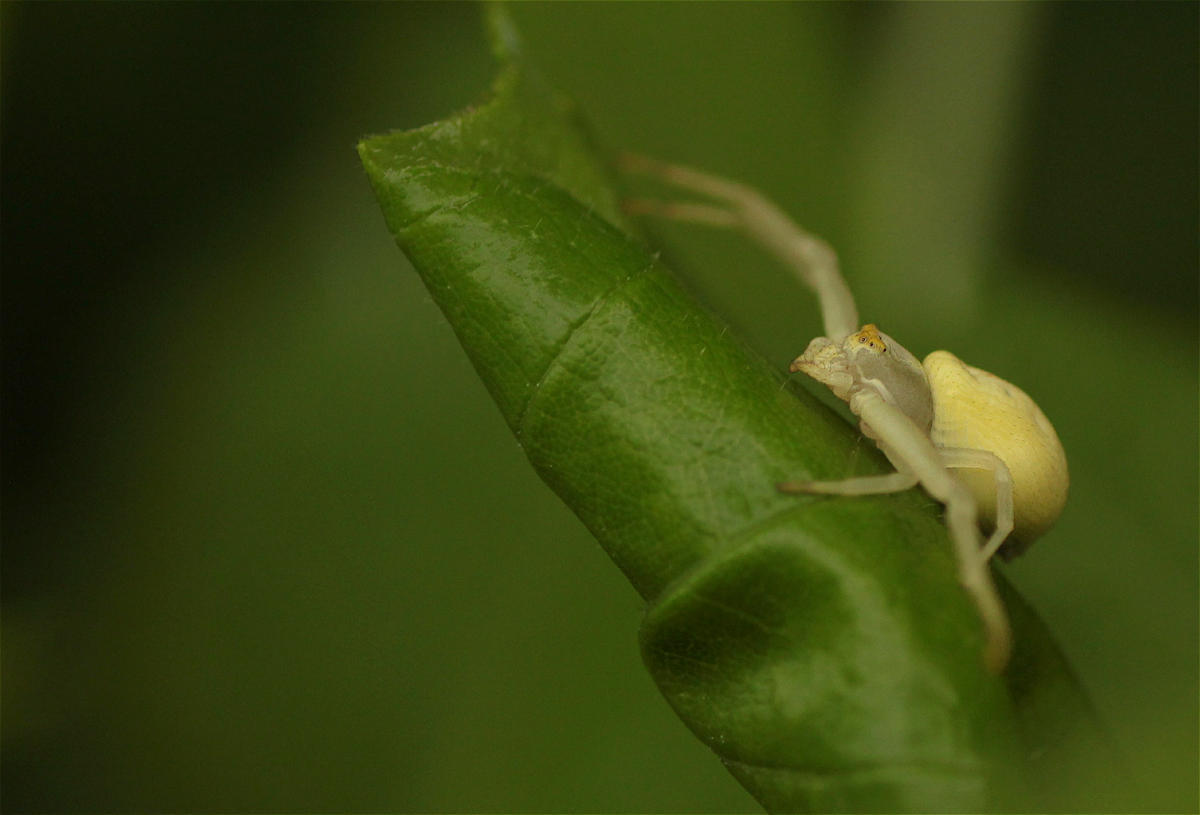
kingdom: Animalia
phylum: Arthropoda
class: Arachnida
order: Araneae
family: Thomisidae
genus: Misumena
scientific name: Misumena vatia
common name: Goldenrod crab spider
